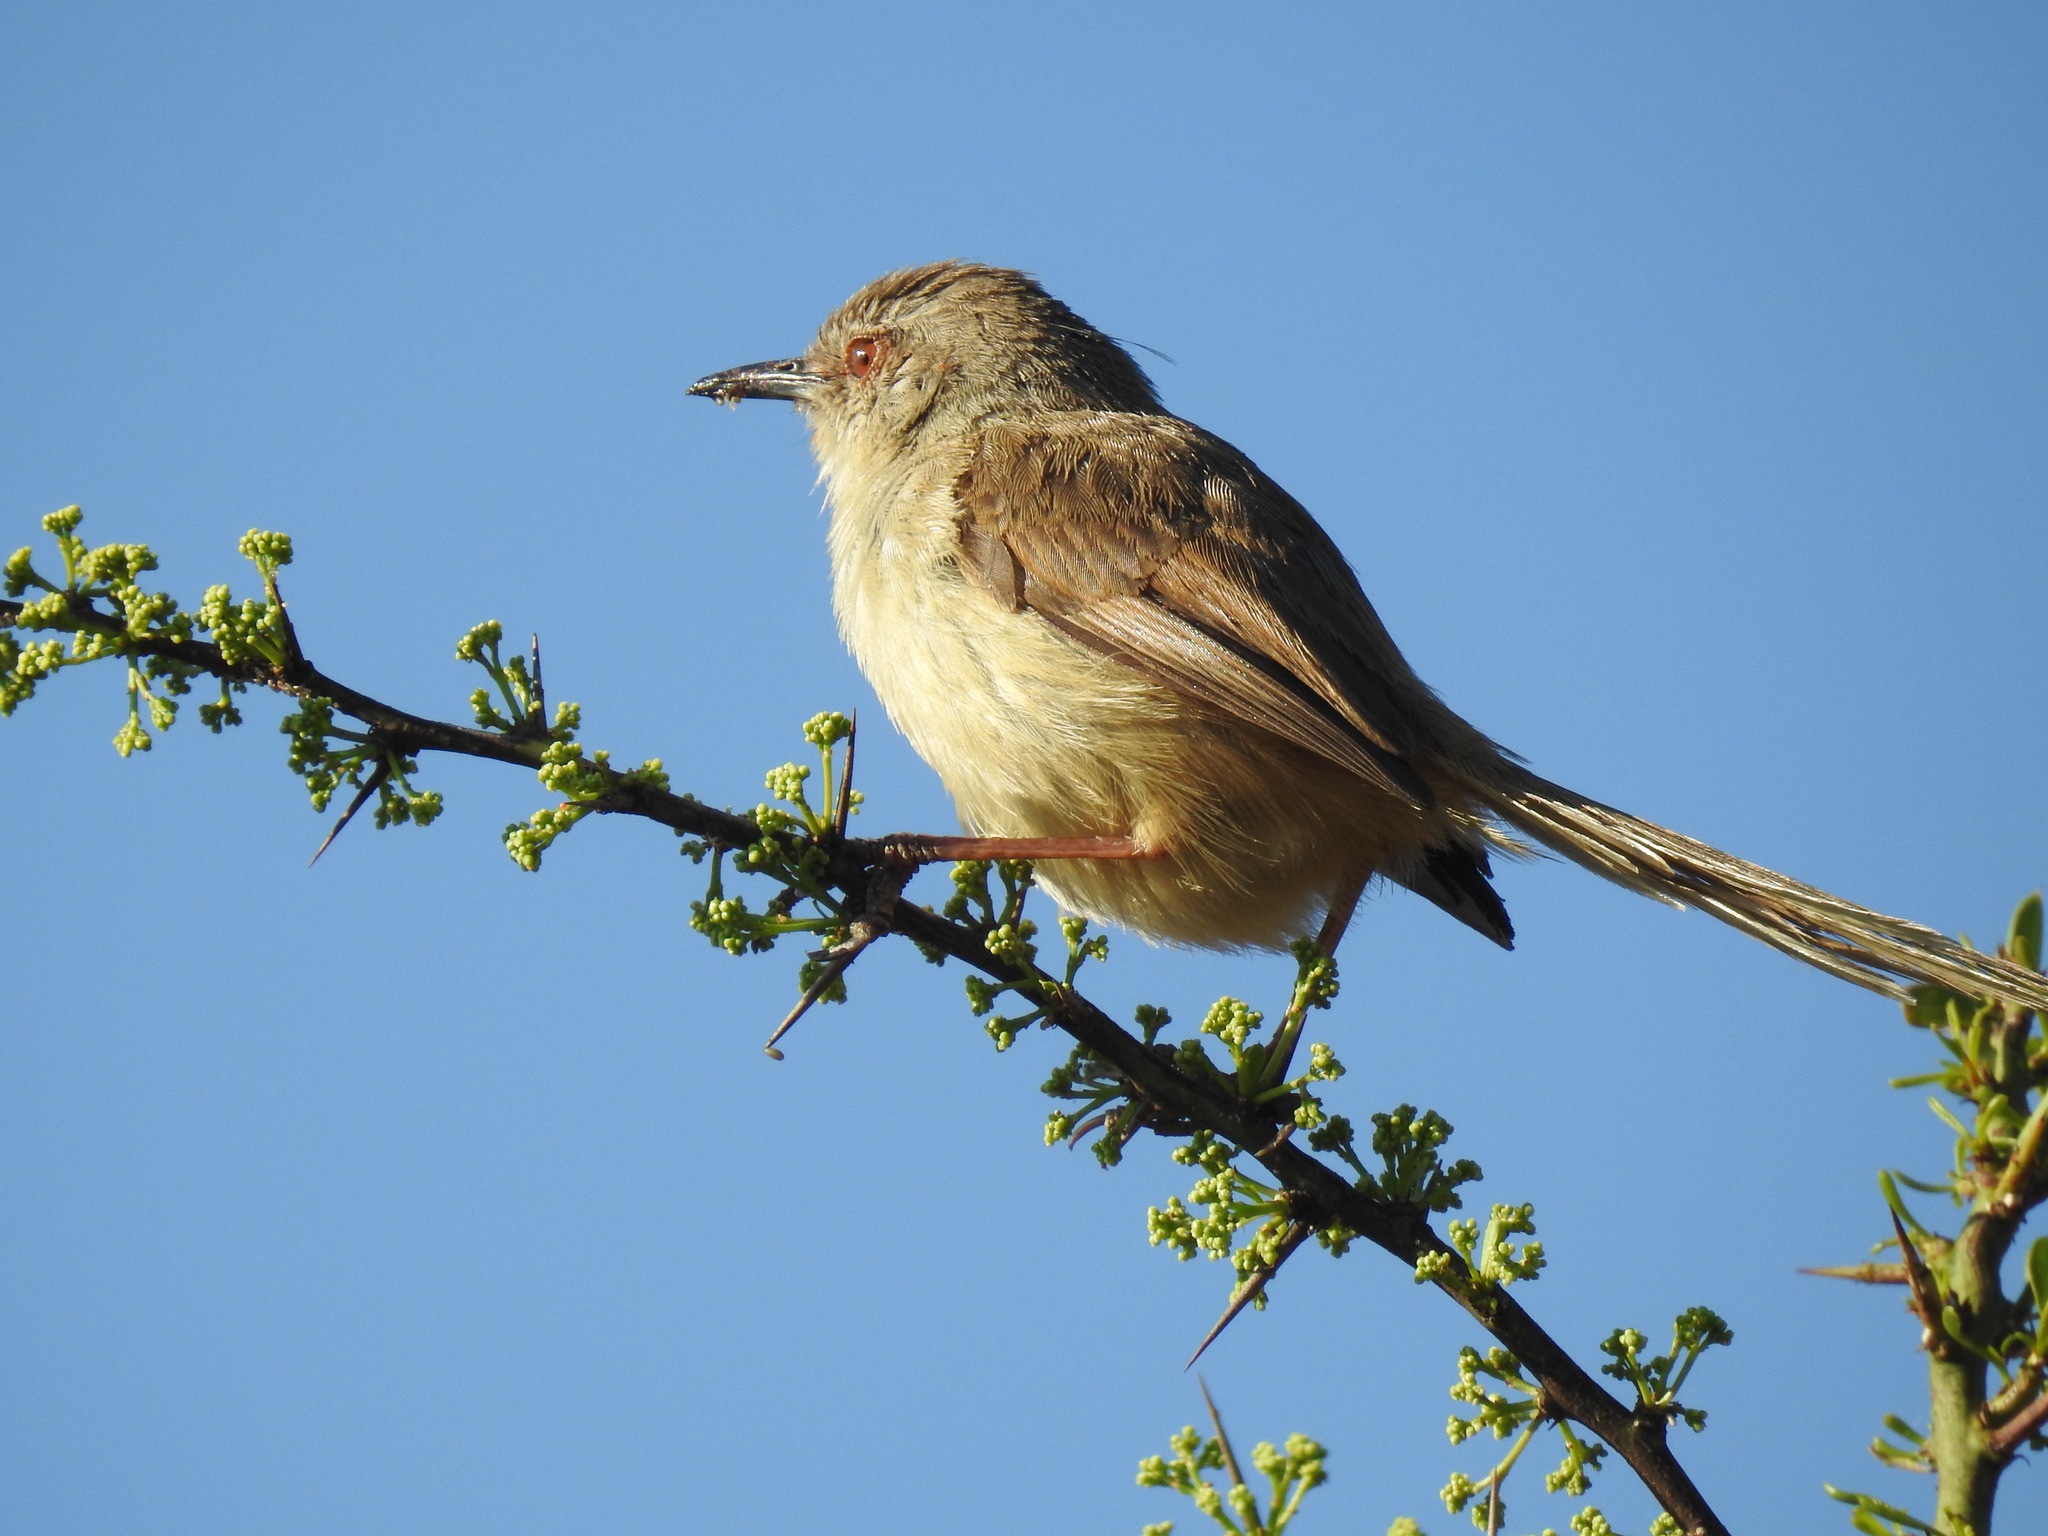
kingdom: Animalia
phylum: Chordata
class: Aves
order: Passeriformes
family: Cisticolidae
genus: Prinia
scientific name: Prinia subflava
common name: Tawny-flanked prinia
